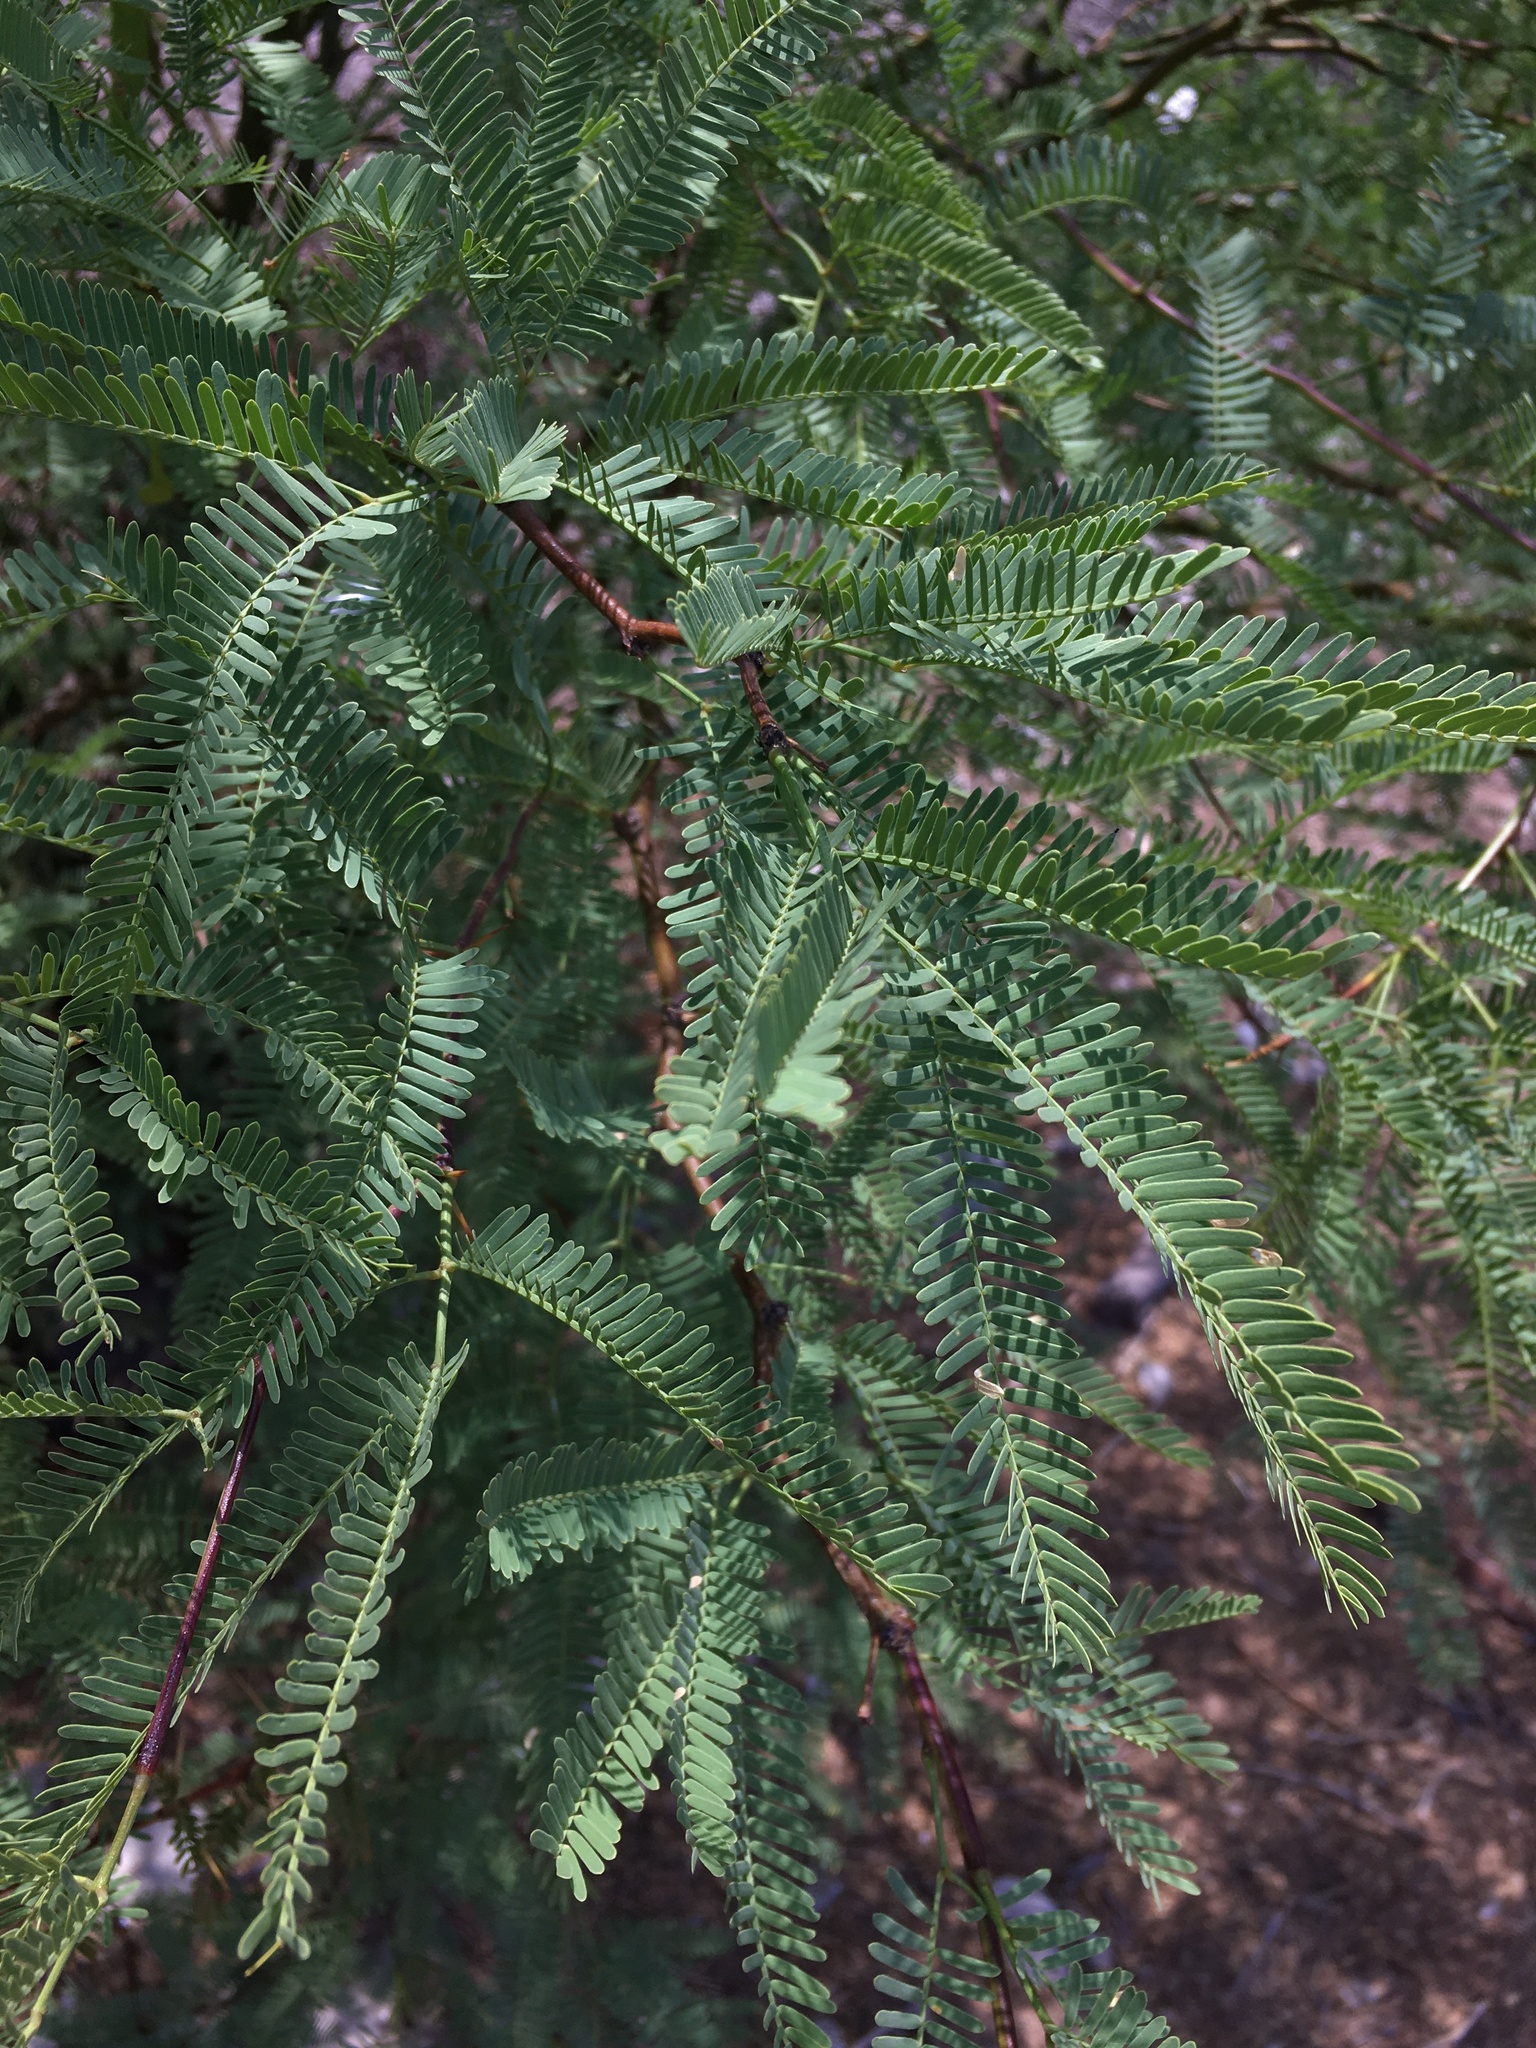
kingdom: Plantae
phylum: Tracheophyta
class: Magnoliopsida
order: Fabales
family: Fabaceae
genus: Prosopis
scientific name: Prosopis tamarugo
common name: Tamarugo
